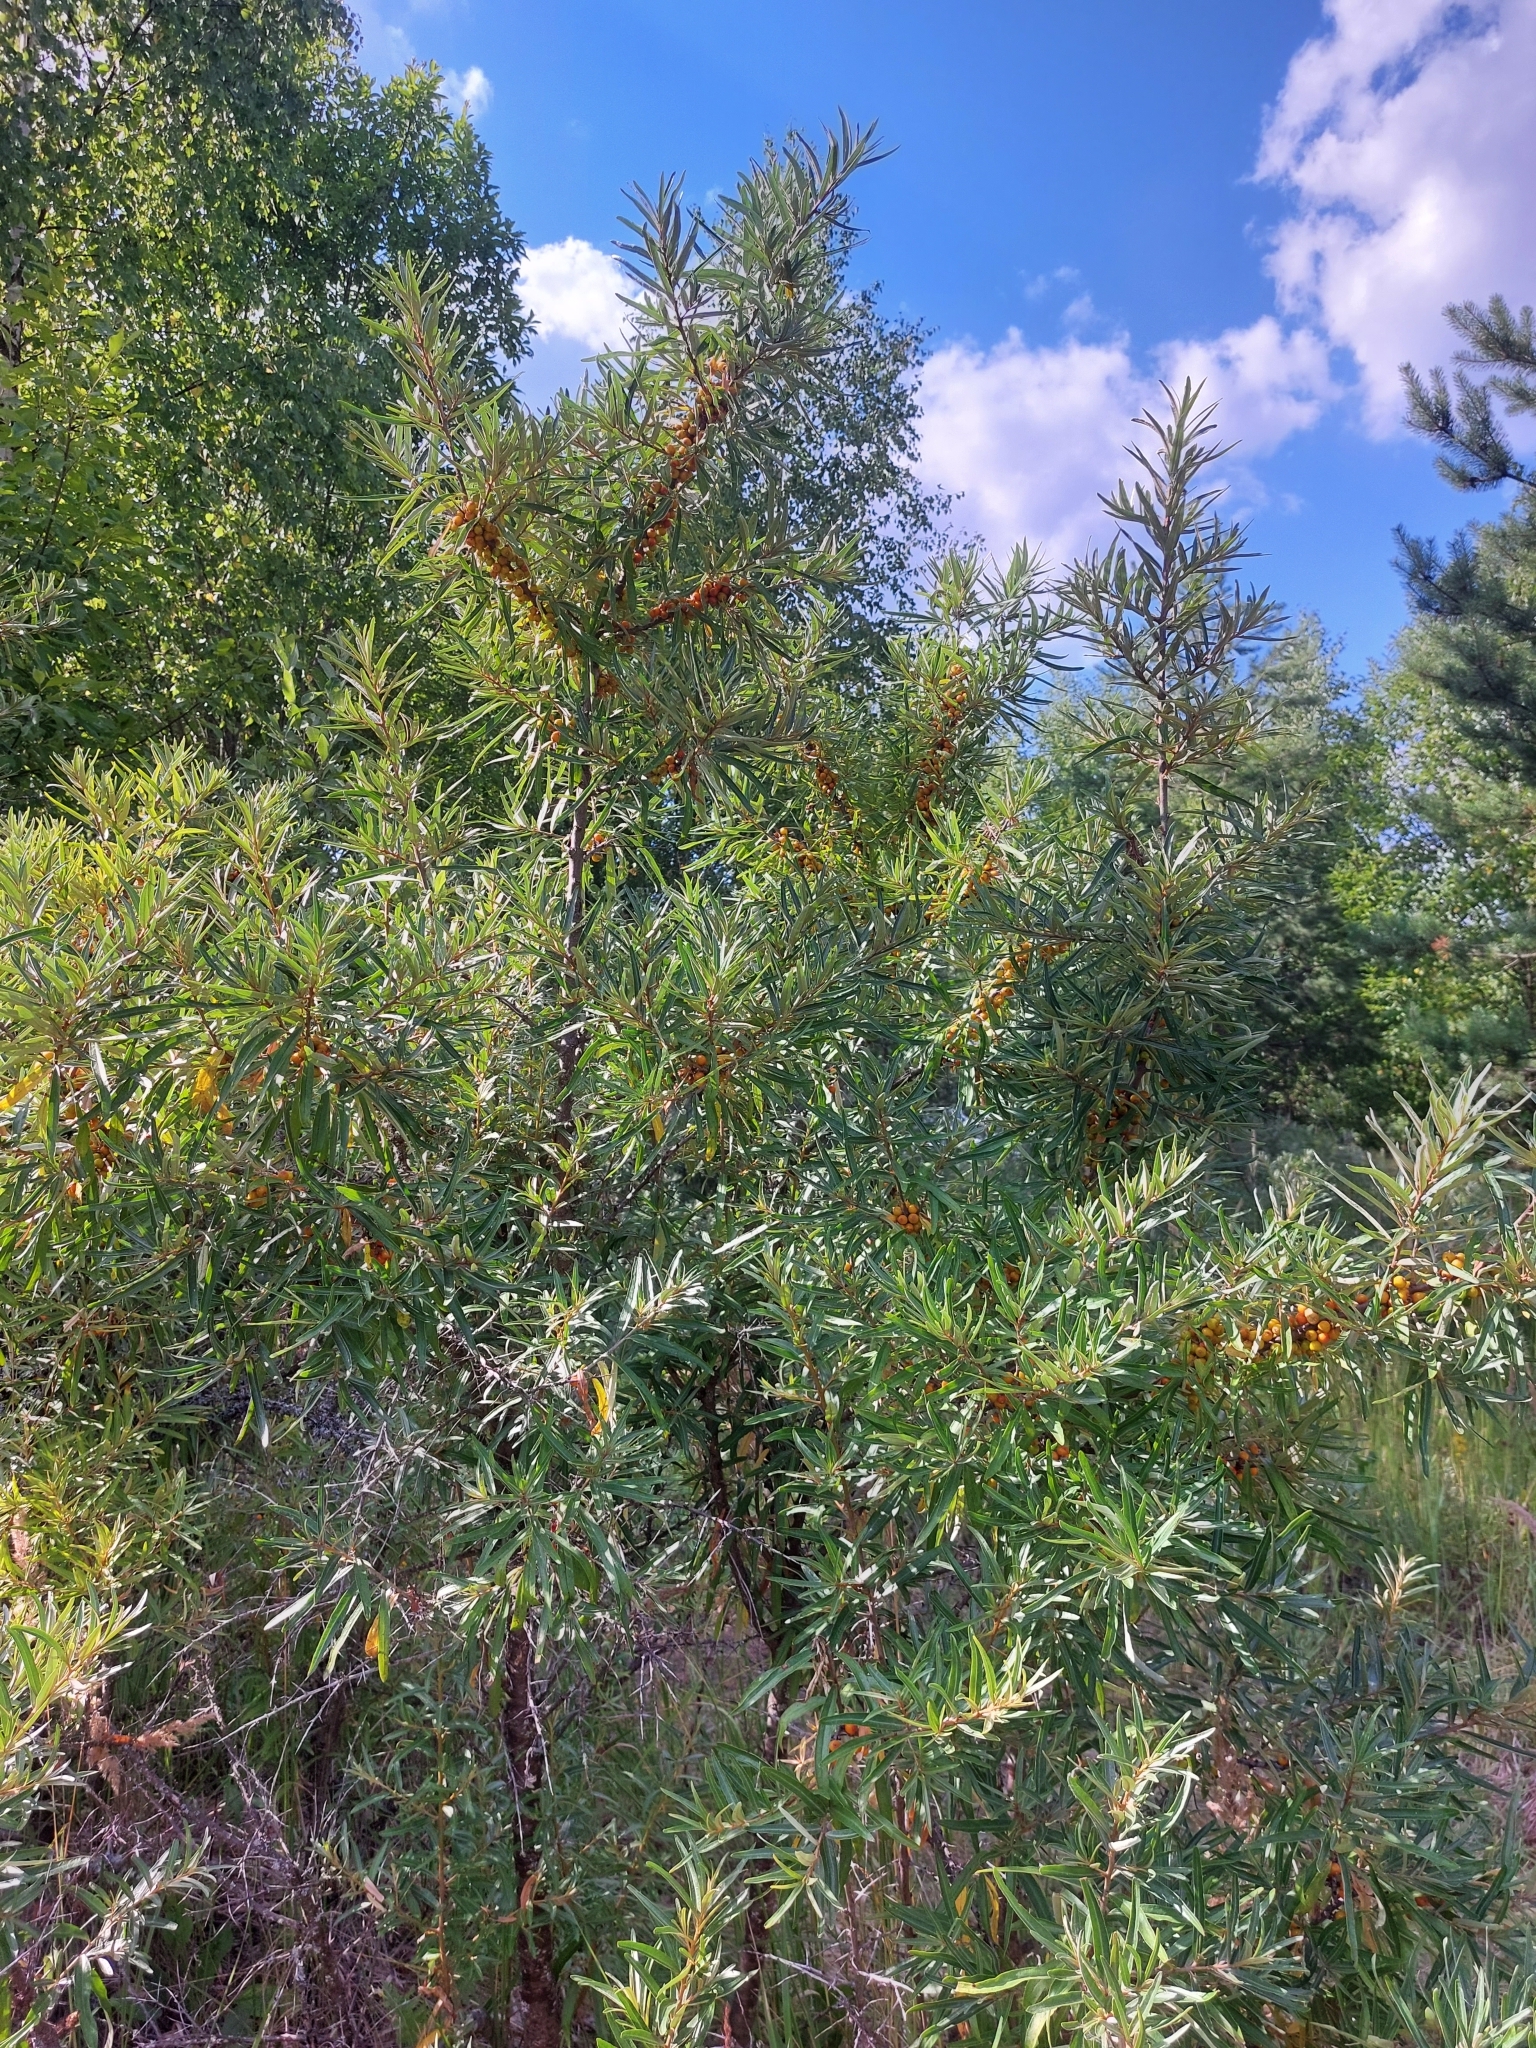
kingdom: Plantae
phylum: Tracheophyta
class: Magnoliopsida
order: Rosales
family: Elaeagnaceae
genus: Hippophae
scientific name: Hippophae rhamnoides
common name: Sea-buckthorn
